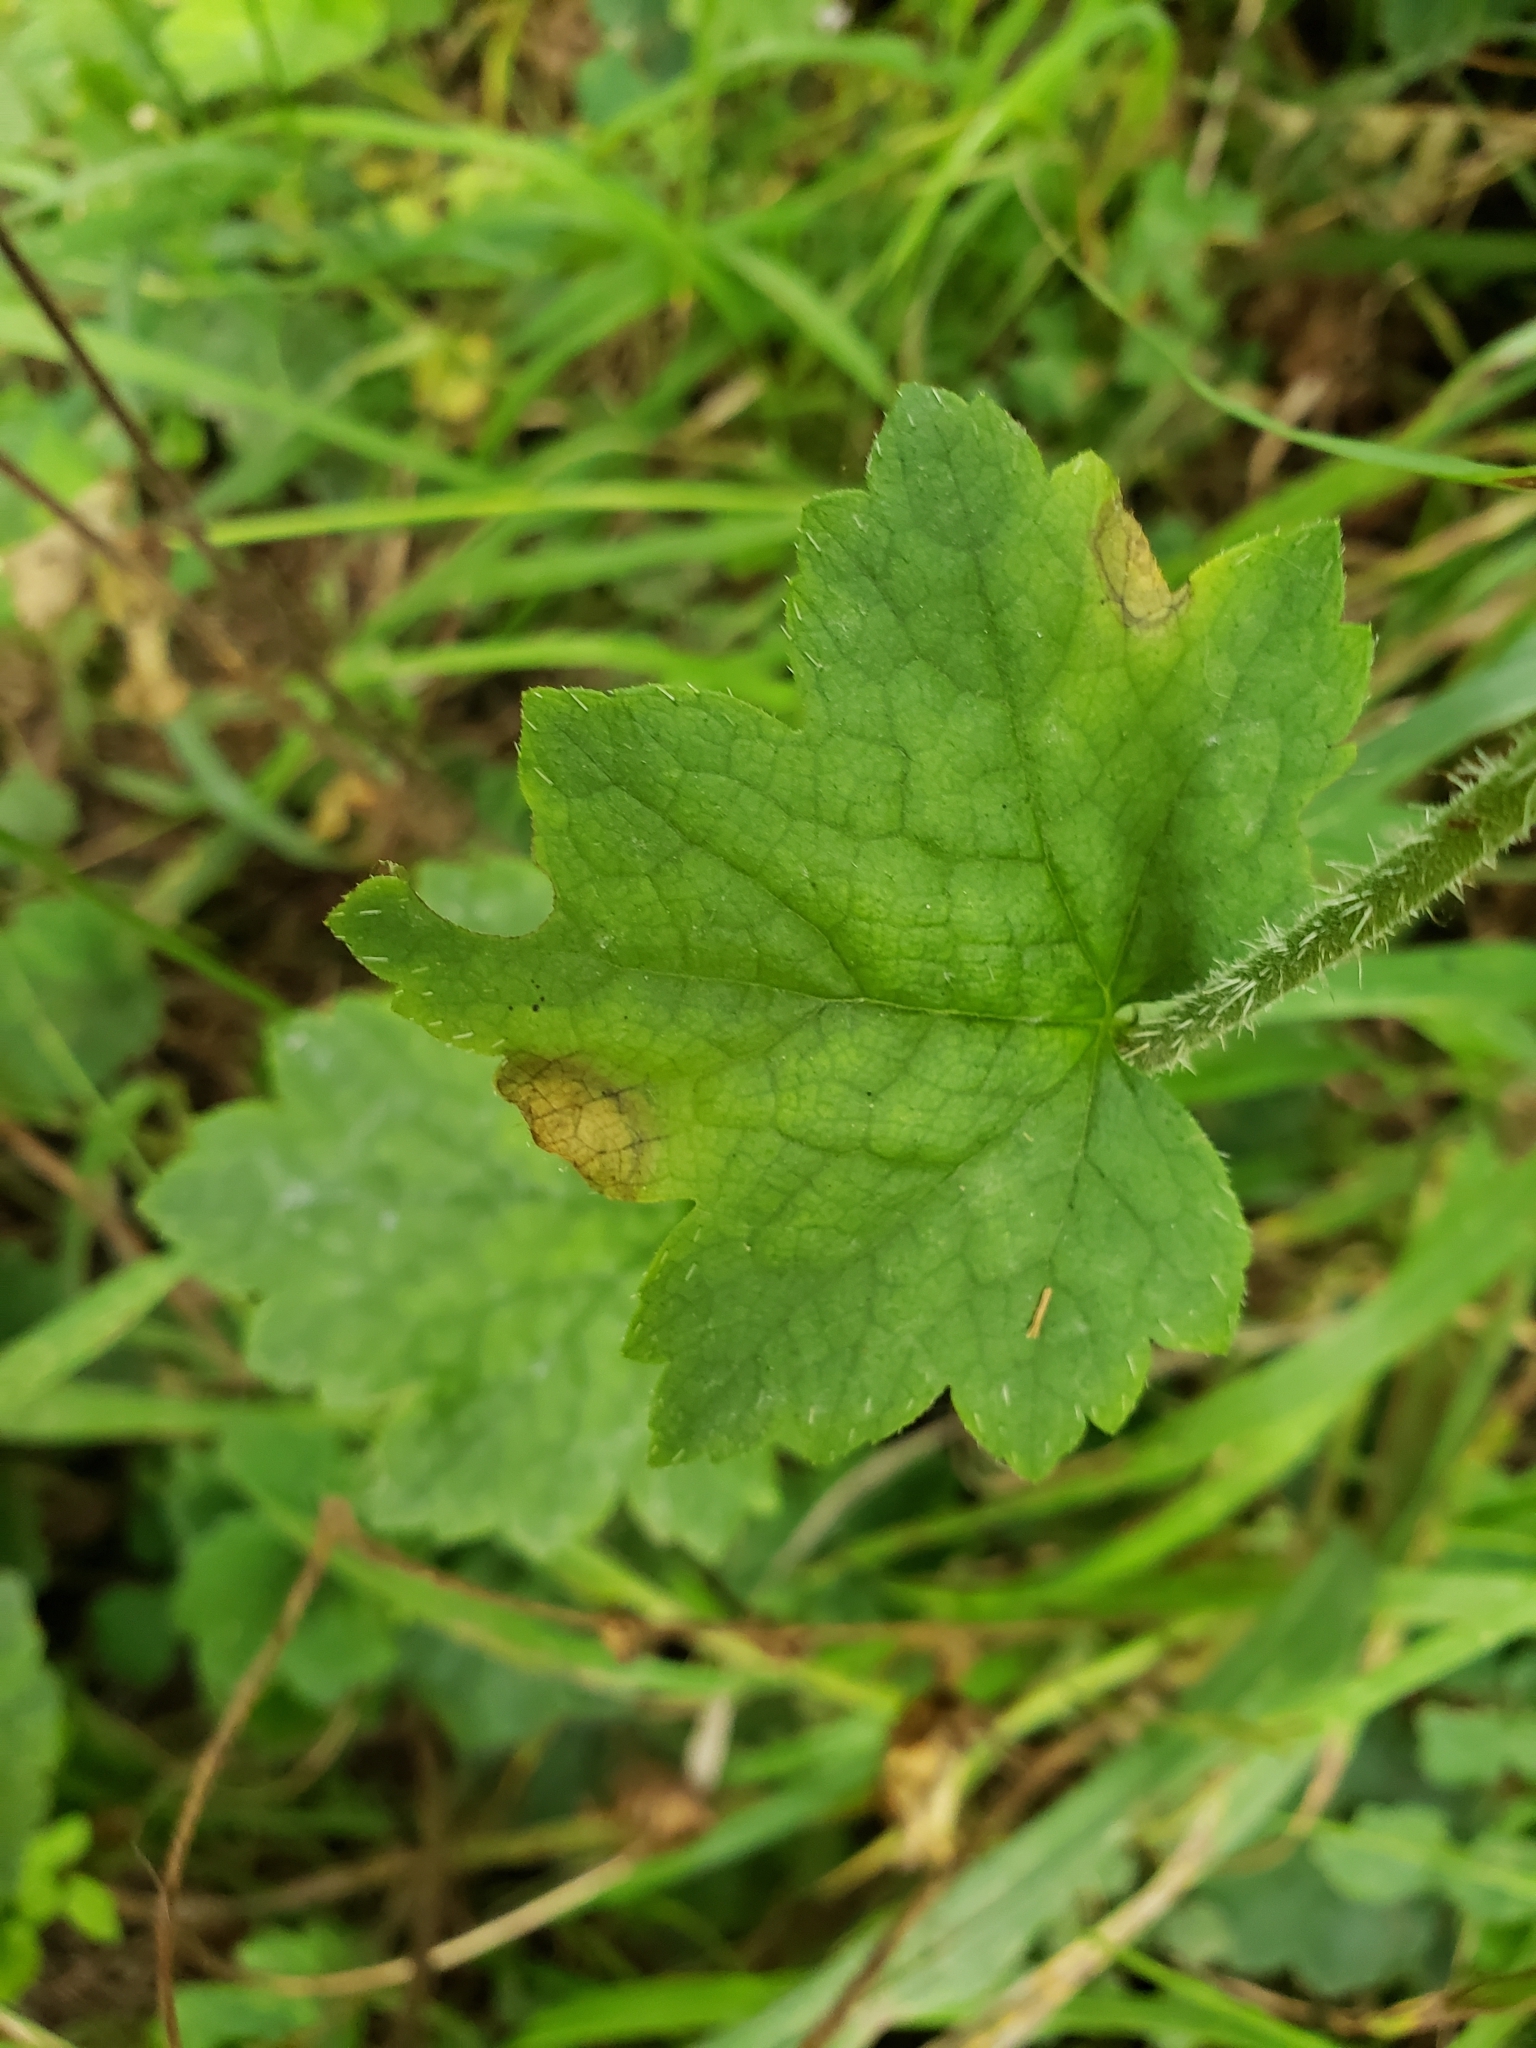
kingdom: Plantae
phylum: Tracheophyta
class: Magnoliopsida
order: Saxifragales
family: Saxifragaceae
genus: Tellima
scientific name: Tellima grandiflora
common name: Fringecups
